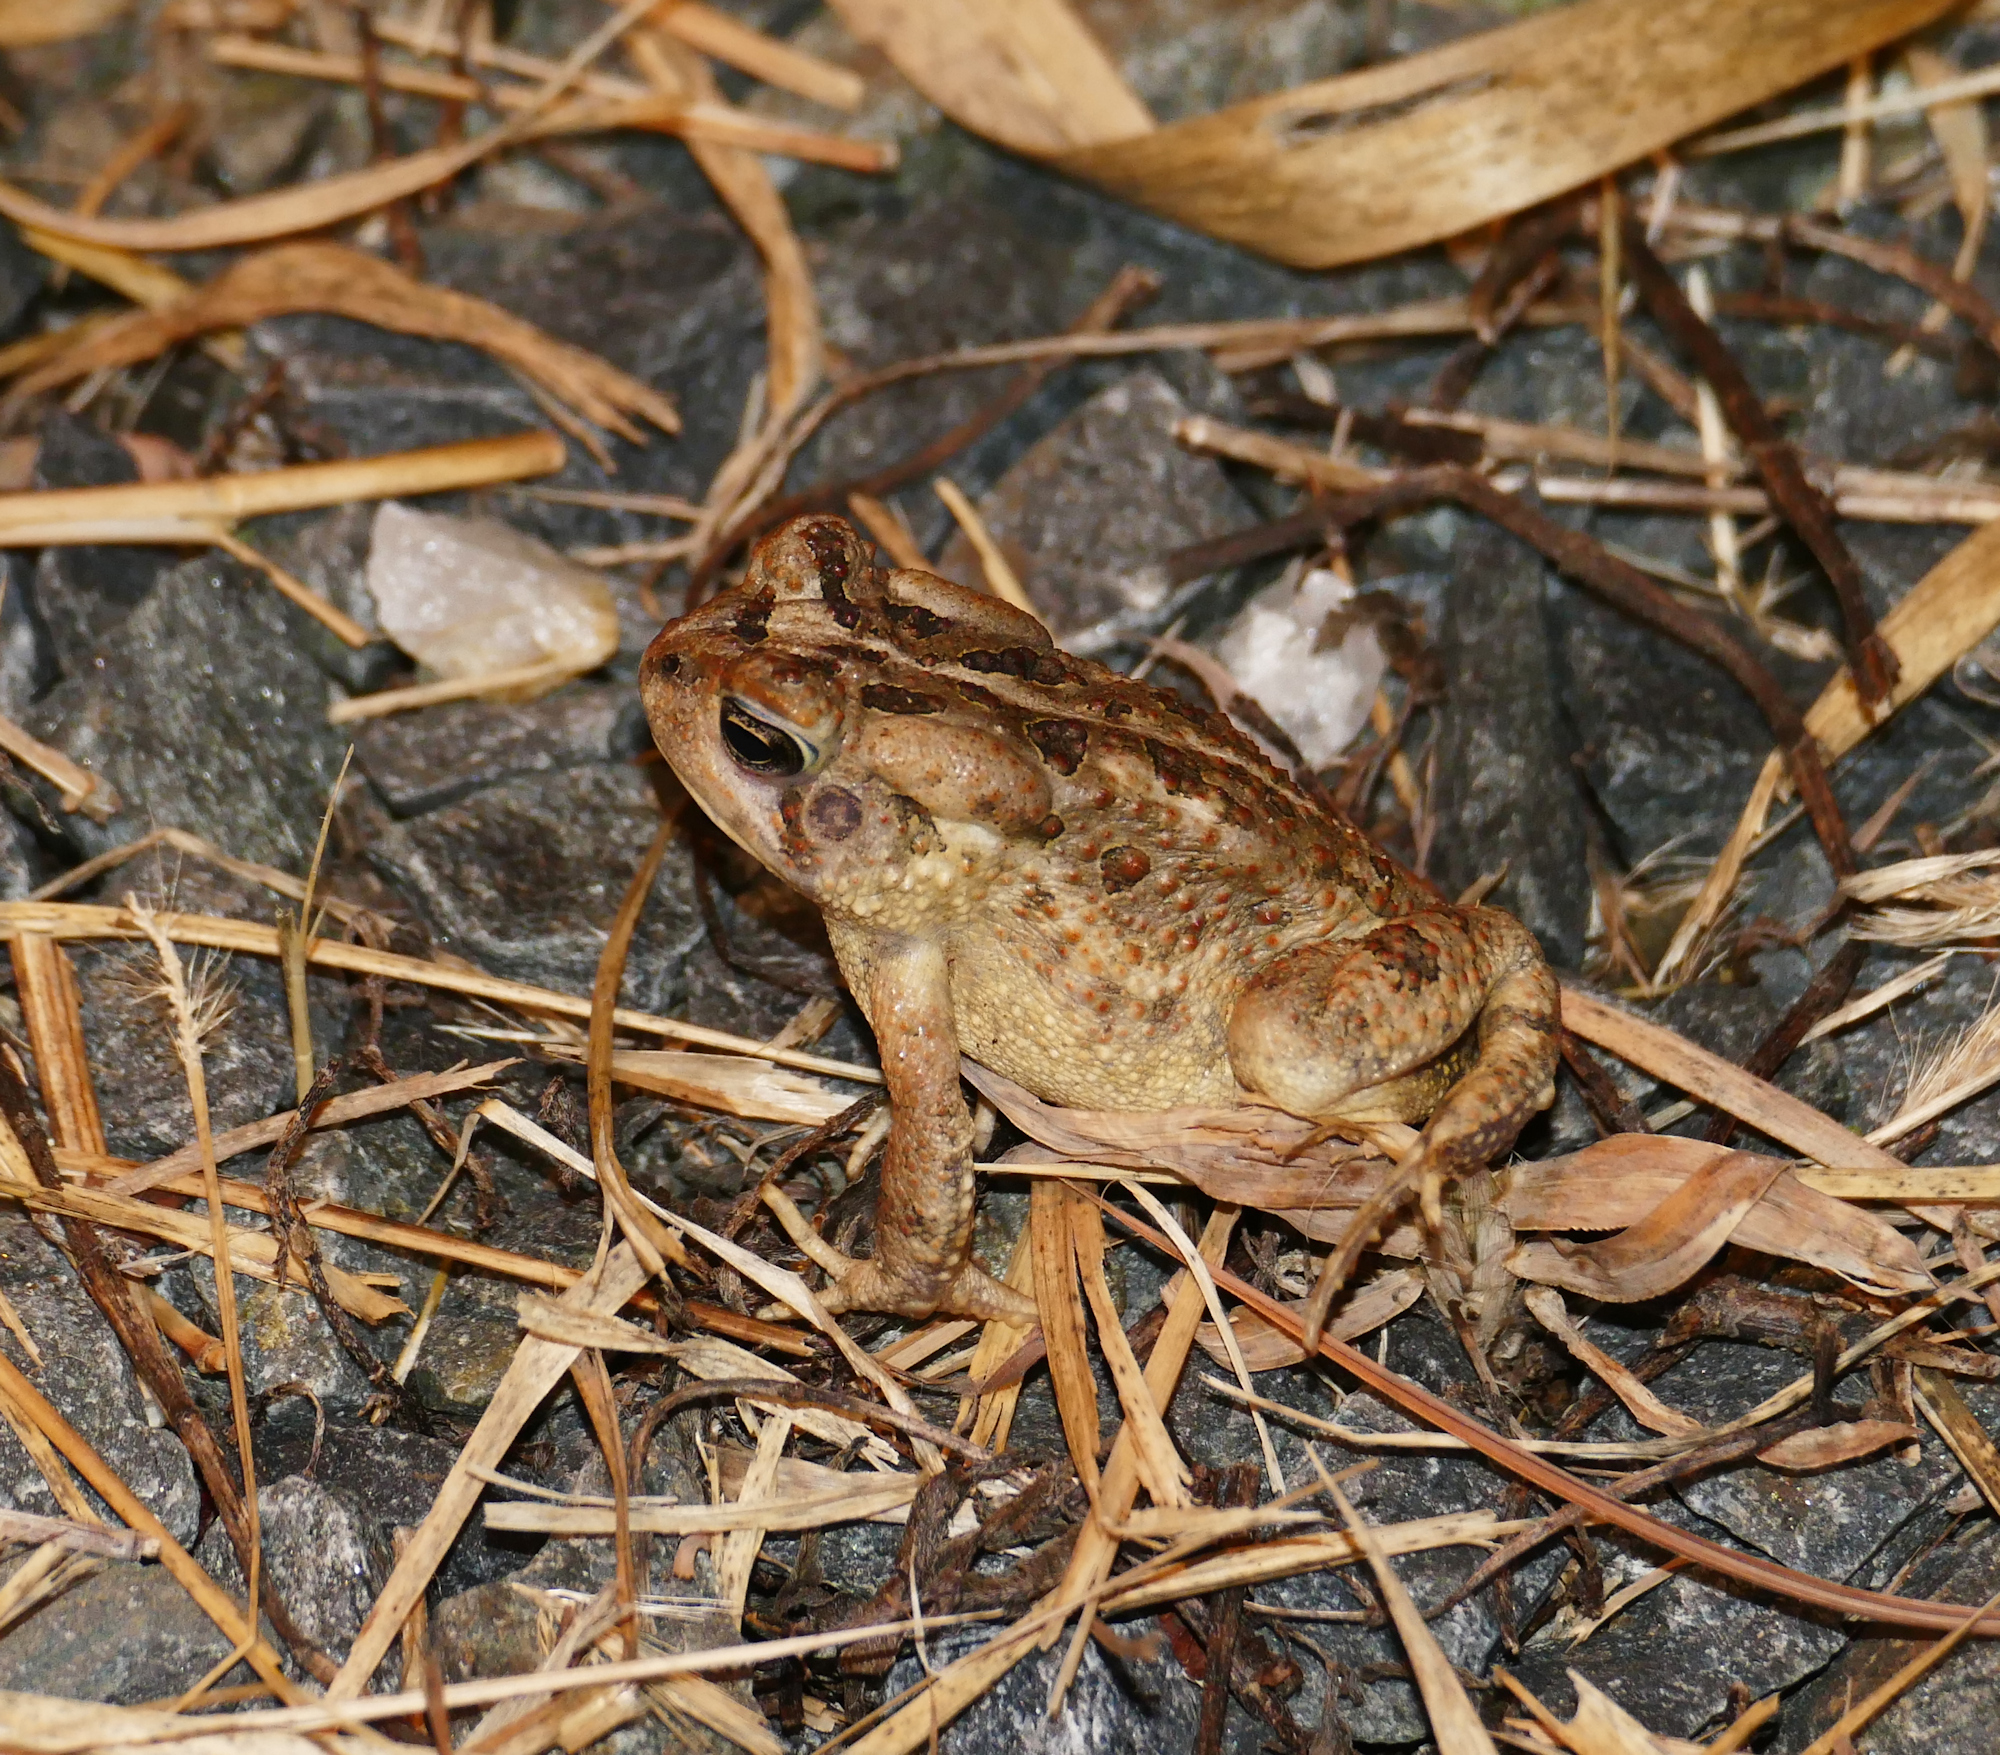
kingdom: Animalia
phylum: Chordata
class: Amphibia
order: Anura
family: Bufonidae
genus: Anaxyrus
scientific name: Anaxyrus fowleri
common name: Fowler's toad
